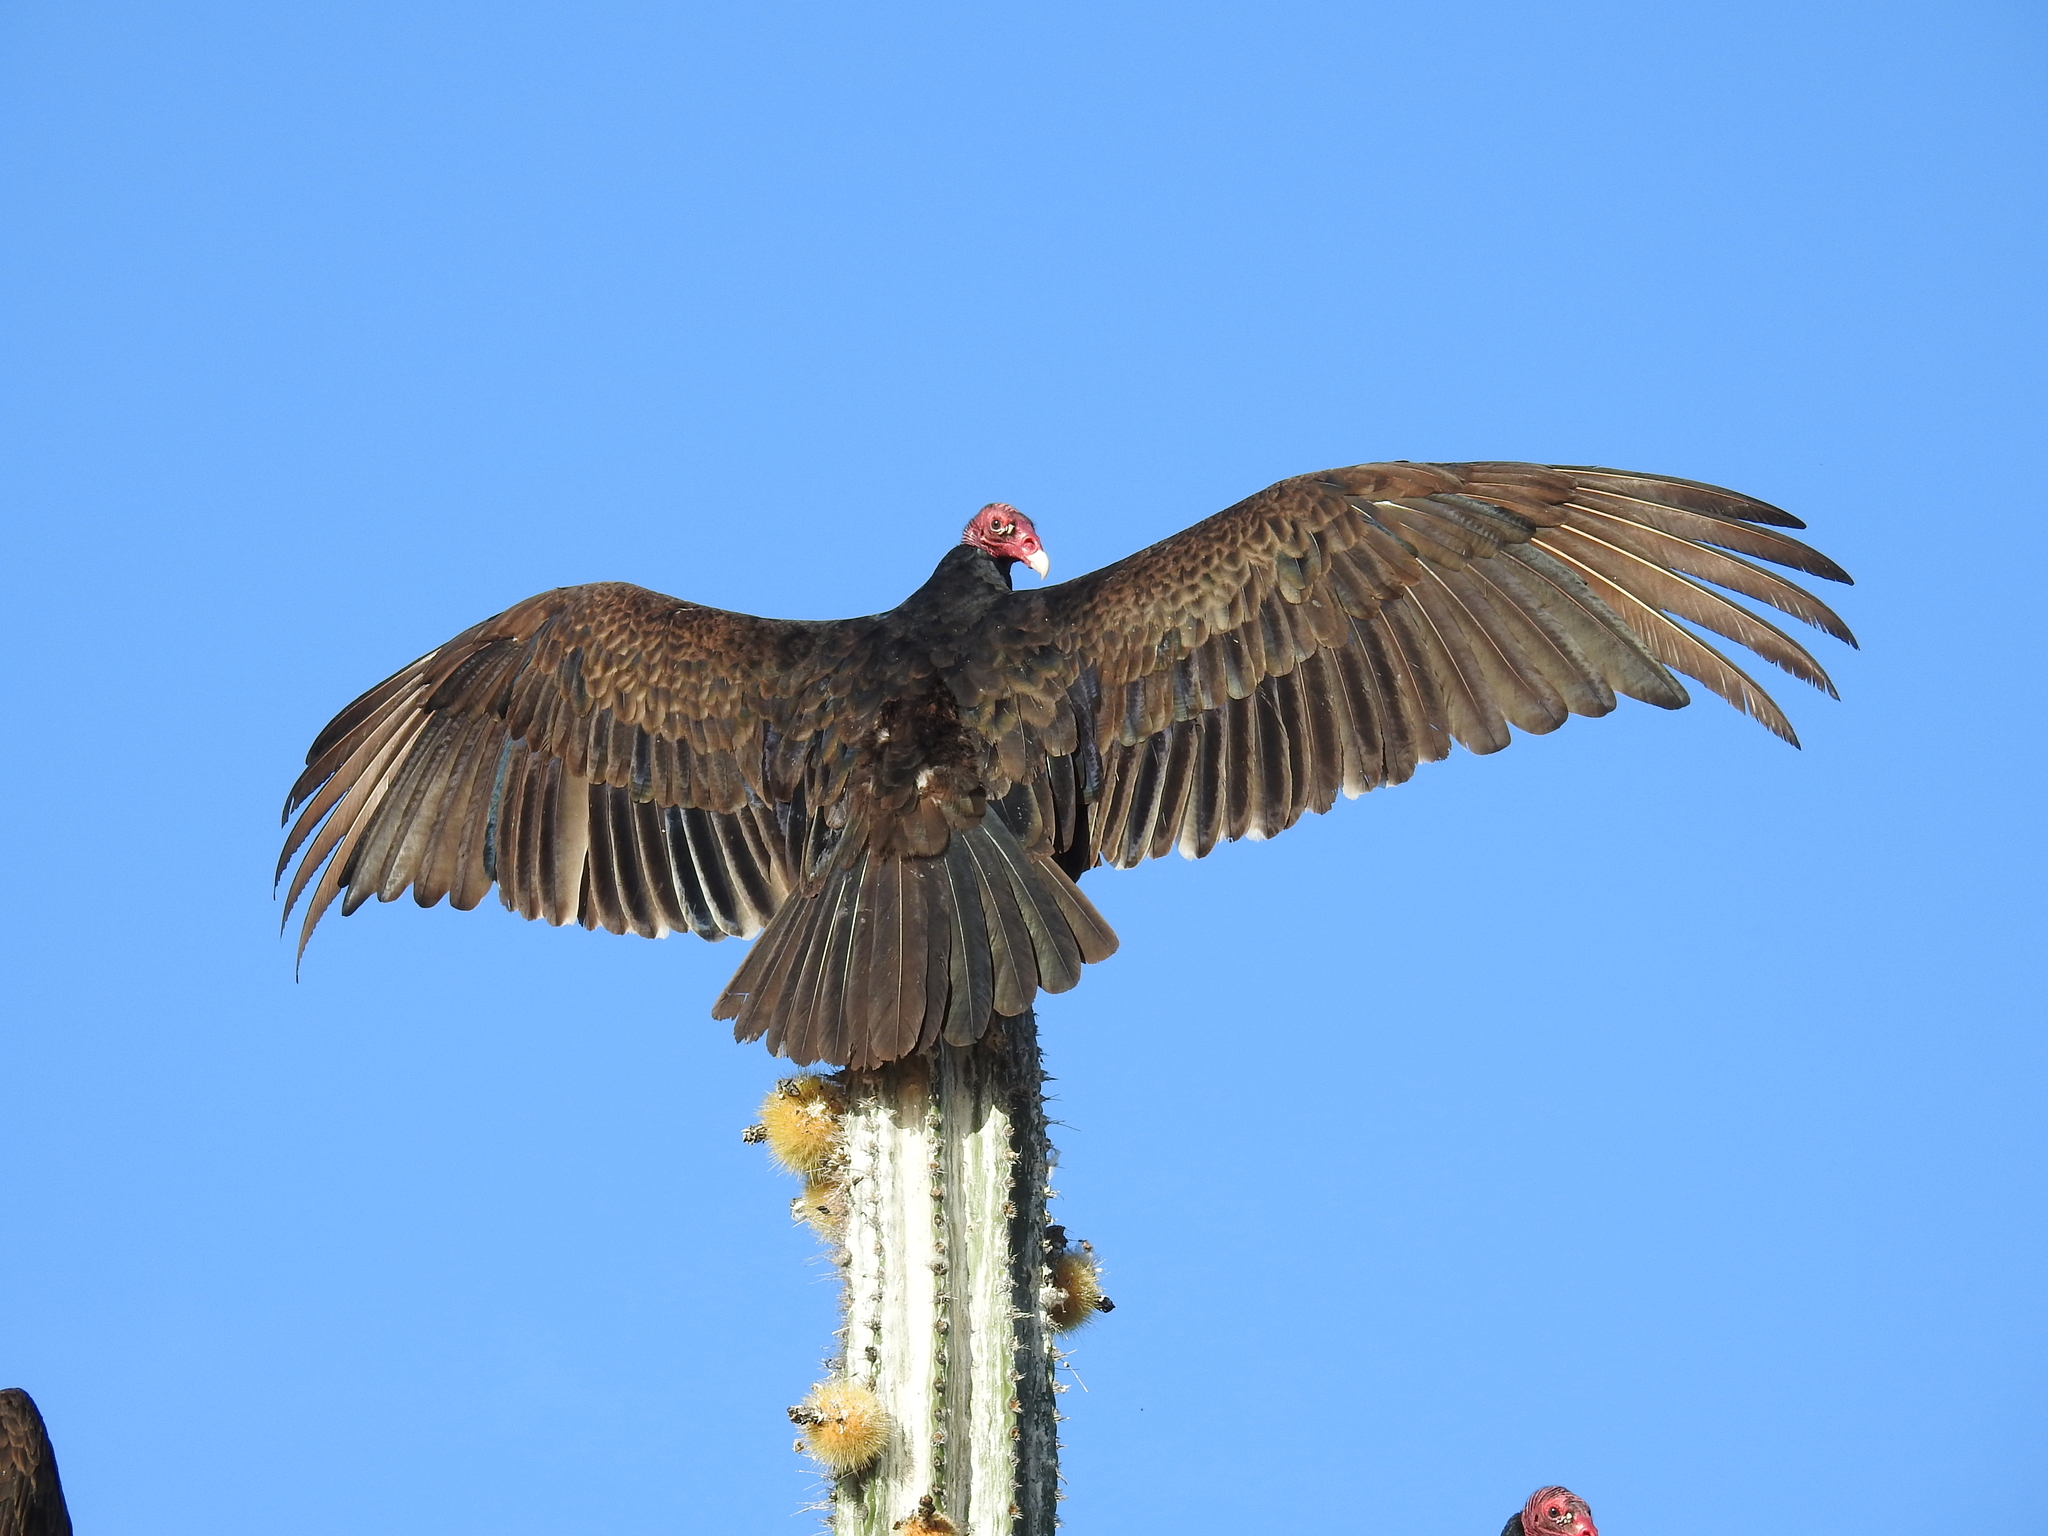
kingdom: Animalia
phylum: Chordata
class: Aves
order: Accipitriformes
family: Cathartidae
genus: Cathartes
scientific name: Cathartes aura
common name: Turkey vulture
